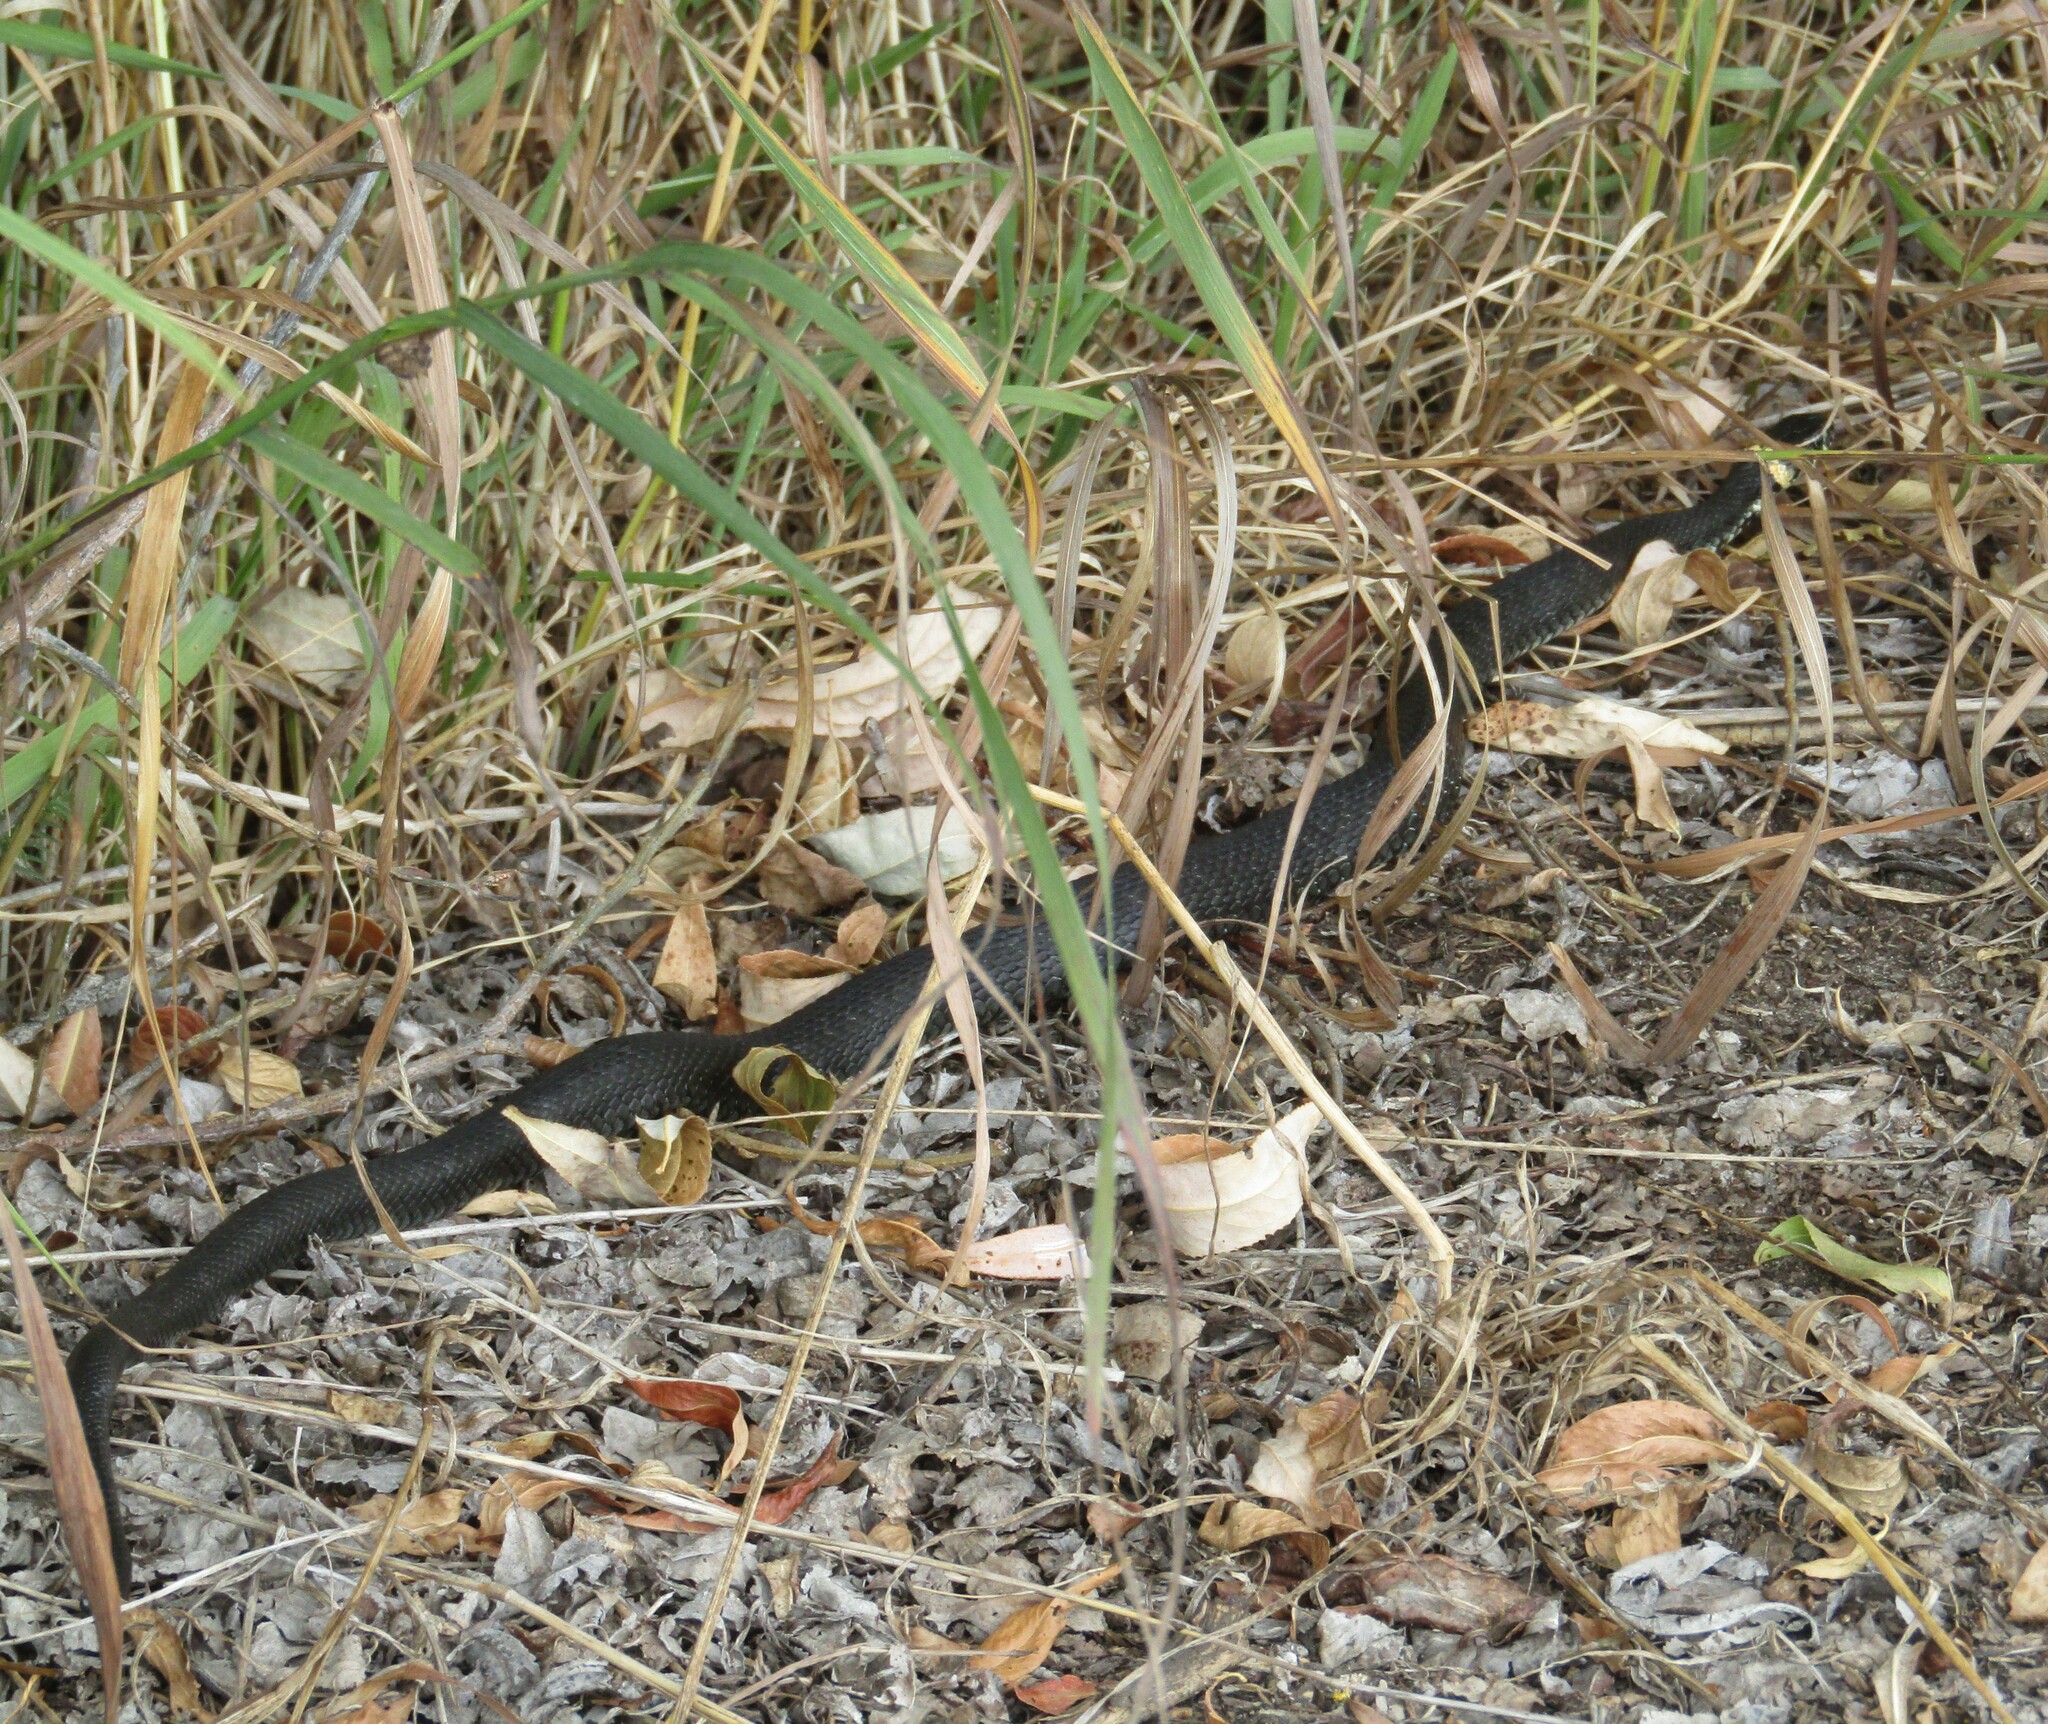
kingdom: Animalia
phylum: Chordata
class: Squamata
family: Colubridae
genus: Natrix
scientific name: Natrix natrix
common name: Grass snake
